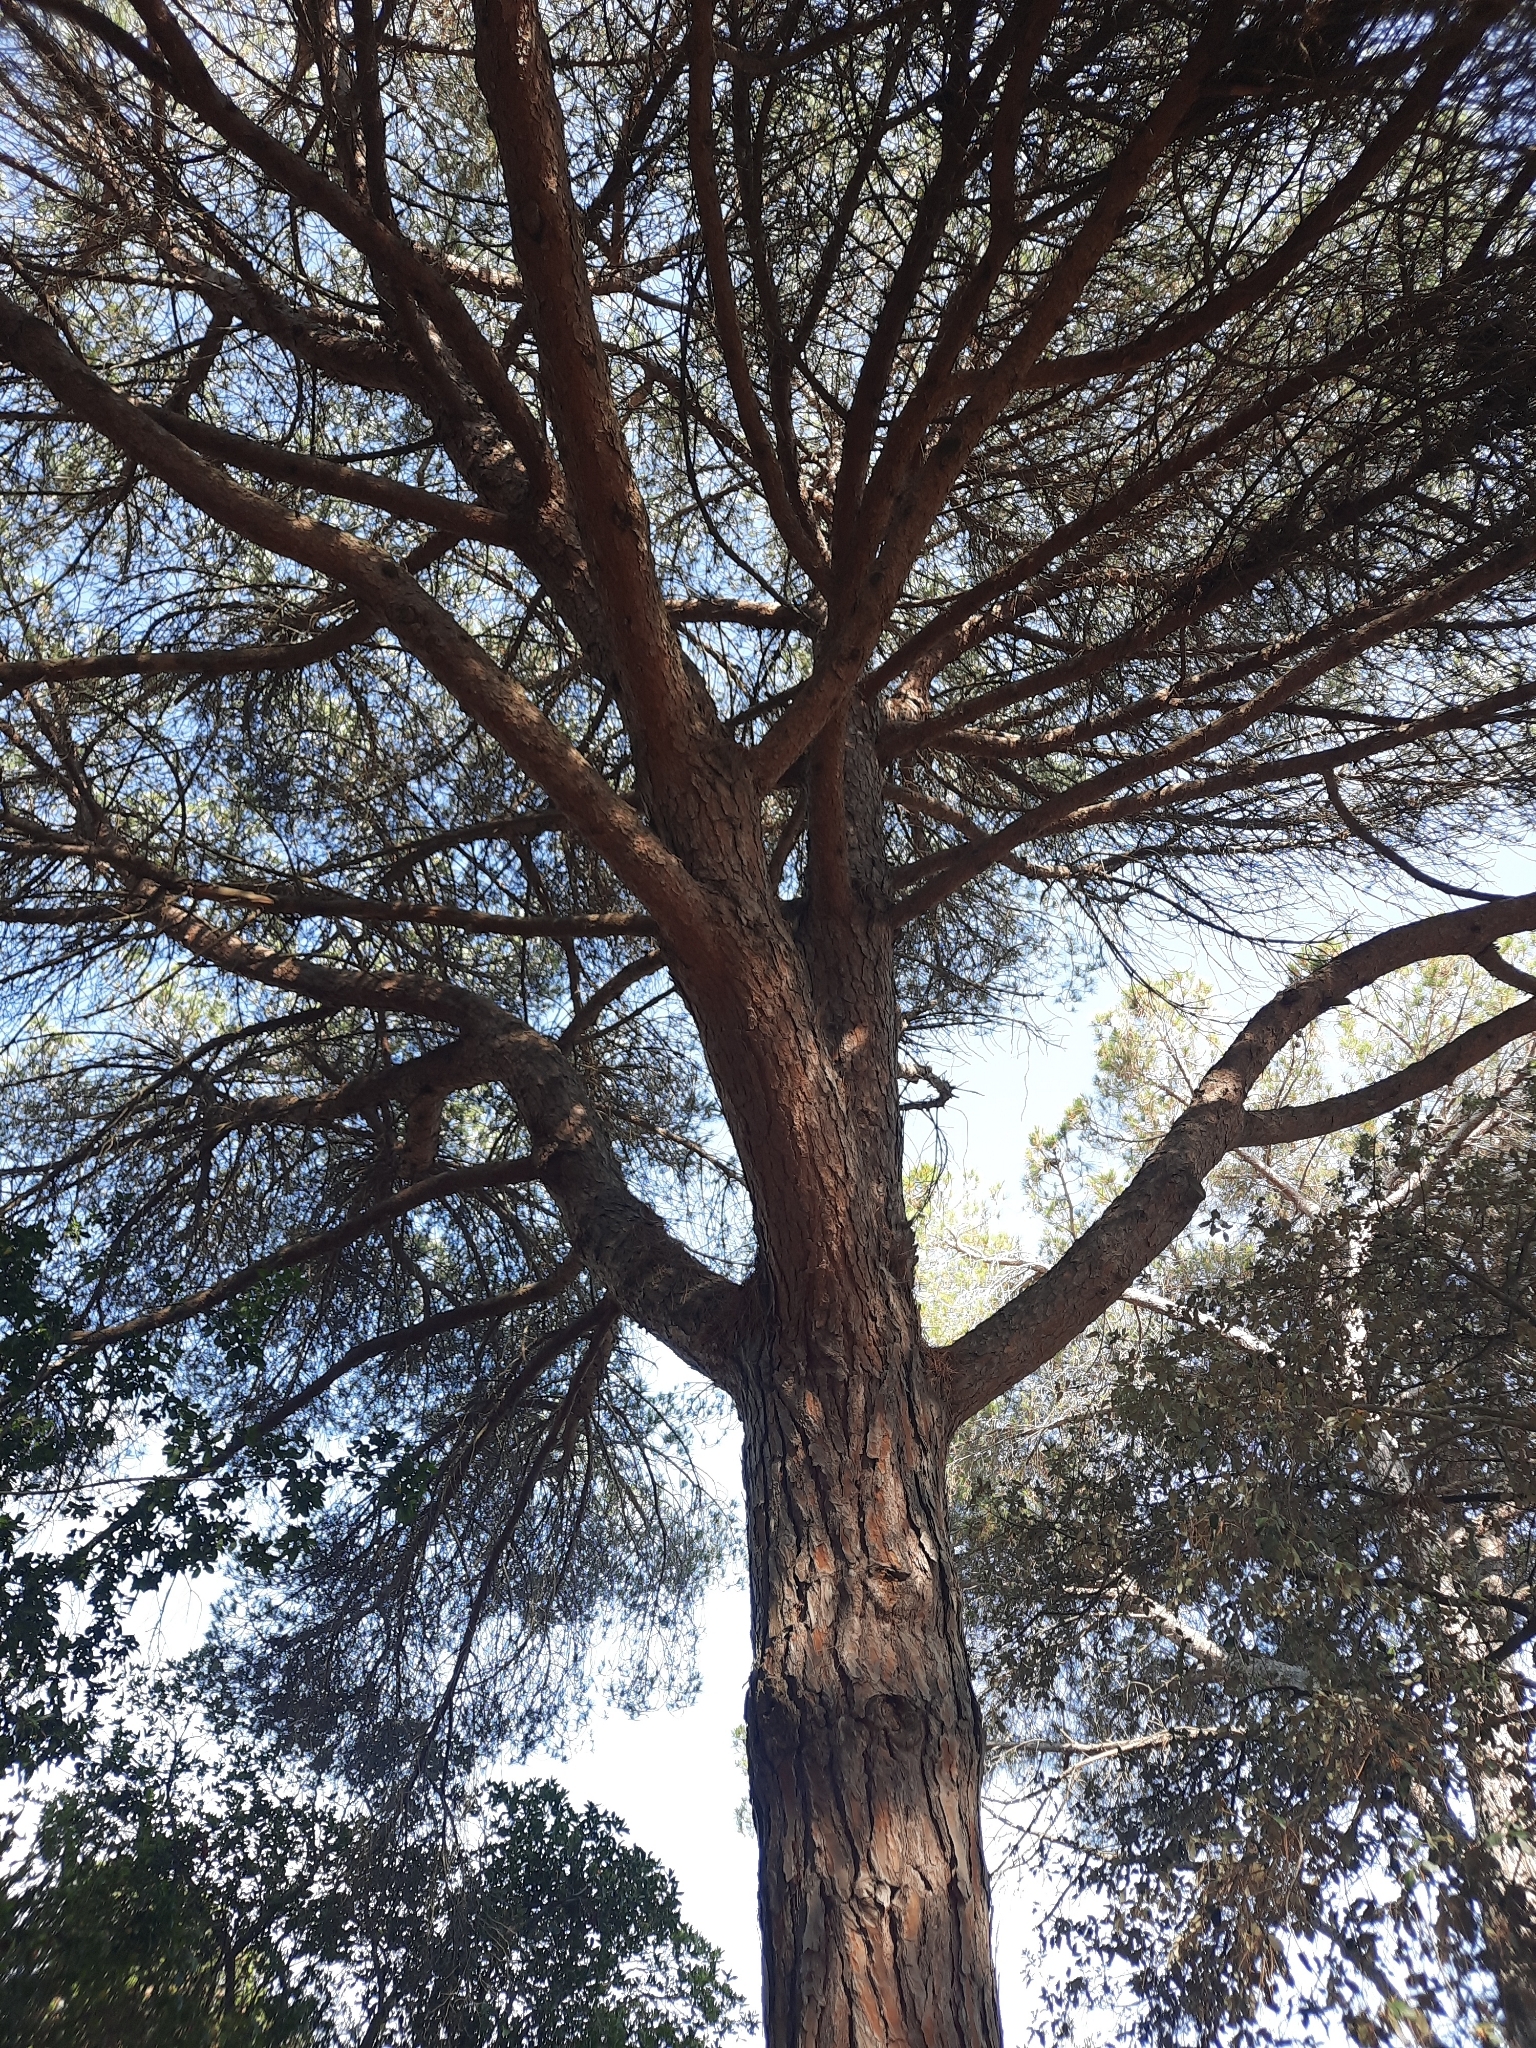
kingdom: Plantae
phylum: Tracheophyta
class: Pinopsida
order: Pinales
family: Pinaceae
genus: Pinus
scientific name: Pinus pinea
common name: Italian stone pine
